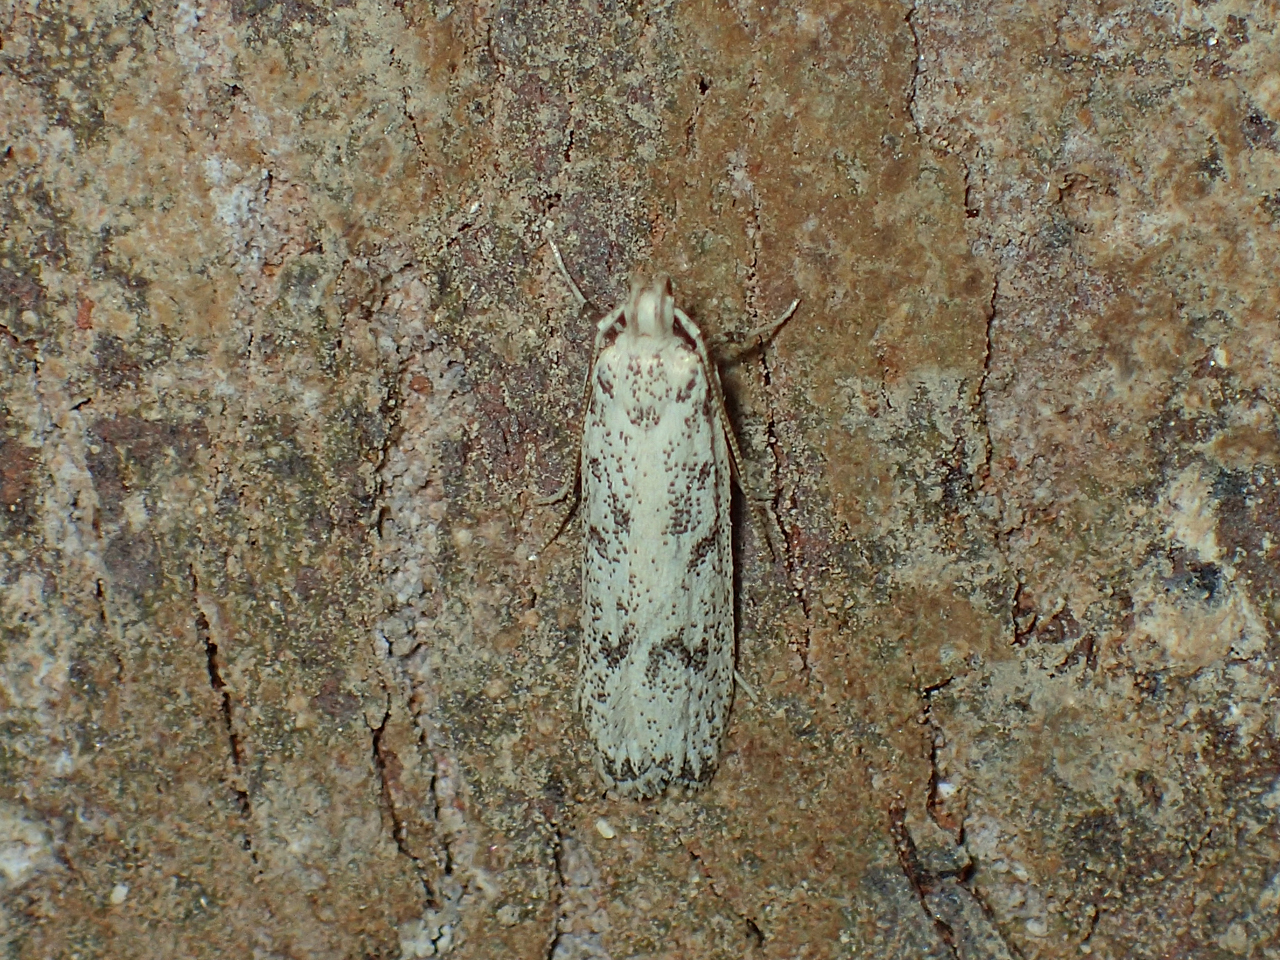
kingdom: Animalia
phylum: Arthropoda
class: Insecta
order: Lepidoptera
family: Autostichidae
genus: Glyphidocera
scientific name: Glyphidocera lactiflosella
